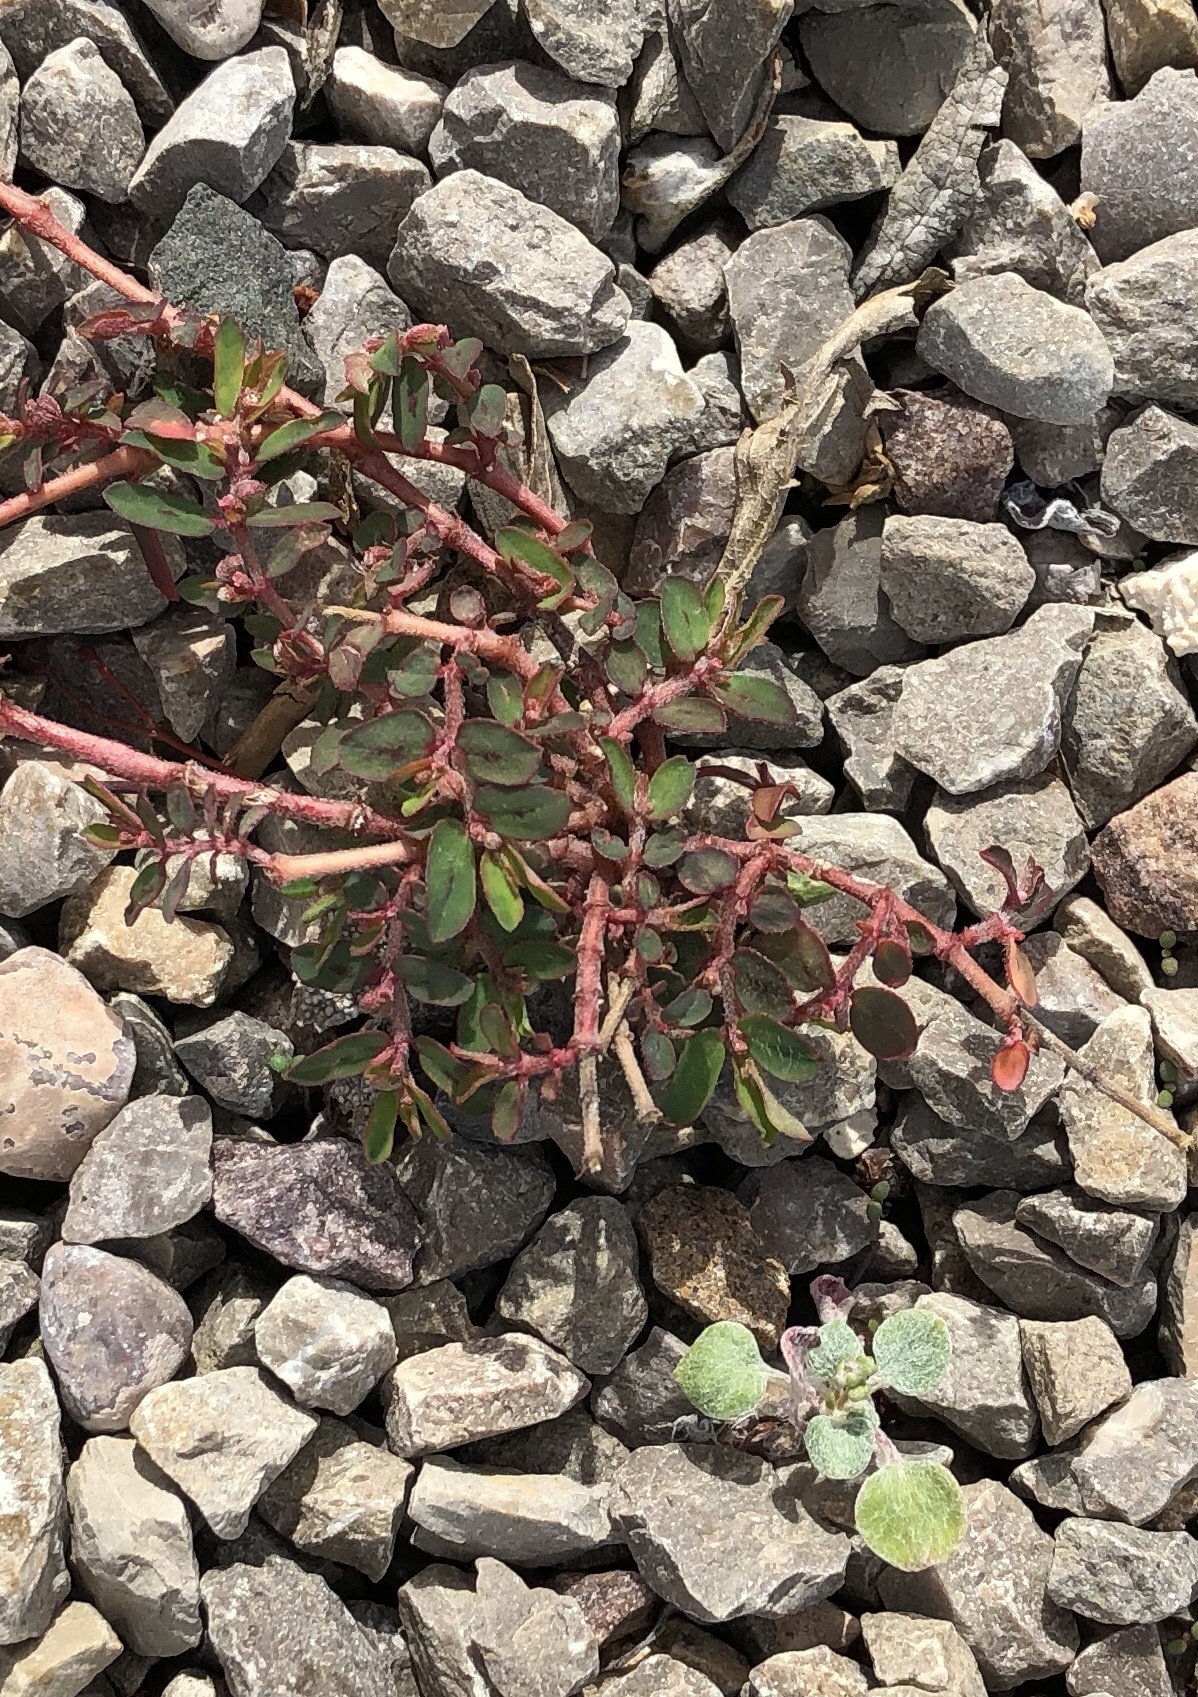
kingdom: Plantae
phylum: Tracheophyta
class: Magnoliopsida
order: Malpighiales
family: Euphorbiaceae
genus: Euphorbia
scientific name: Euphorbia maculata
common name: Spotted spurge
